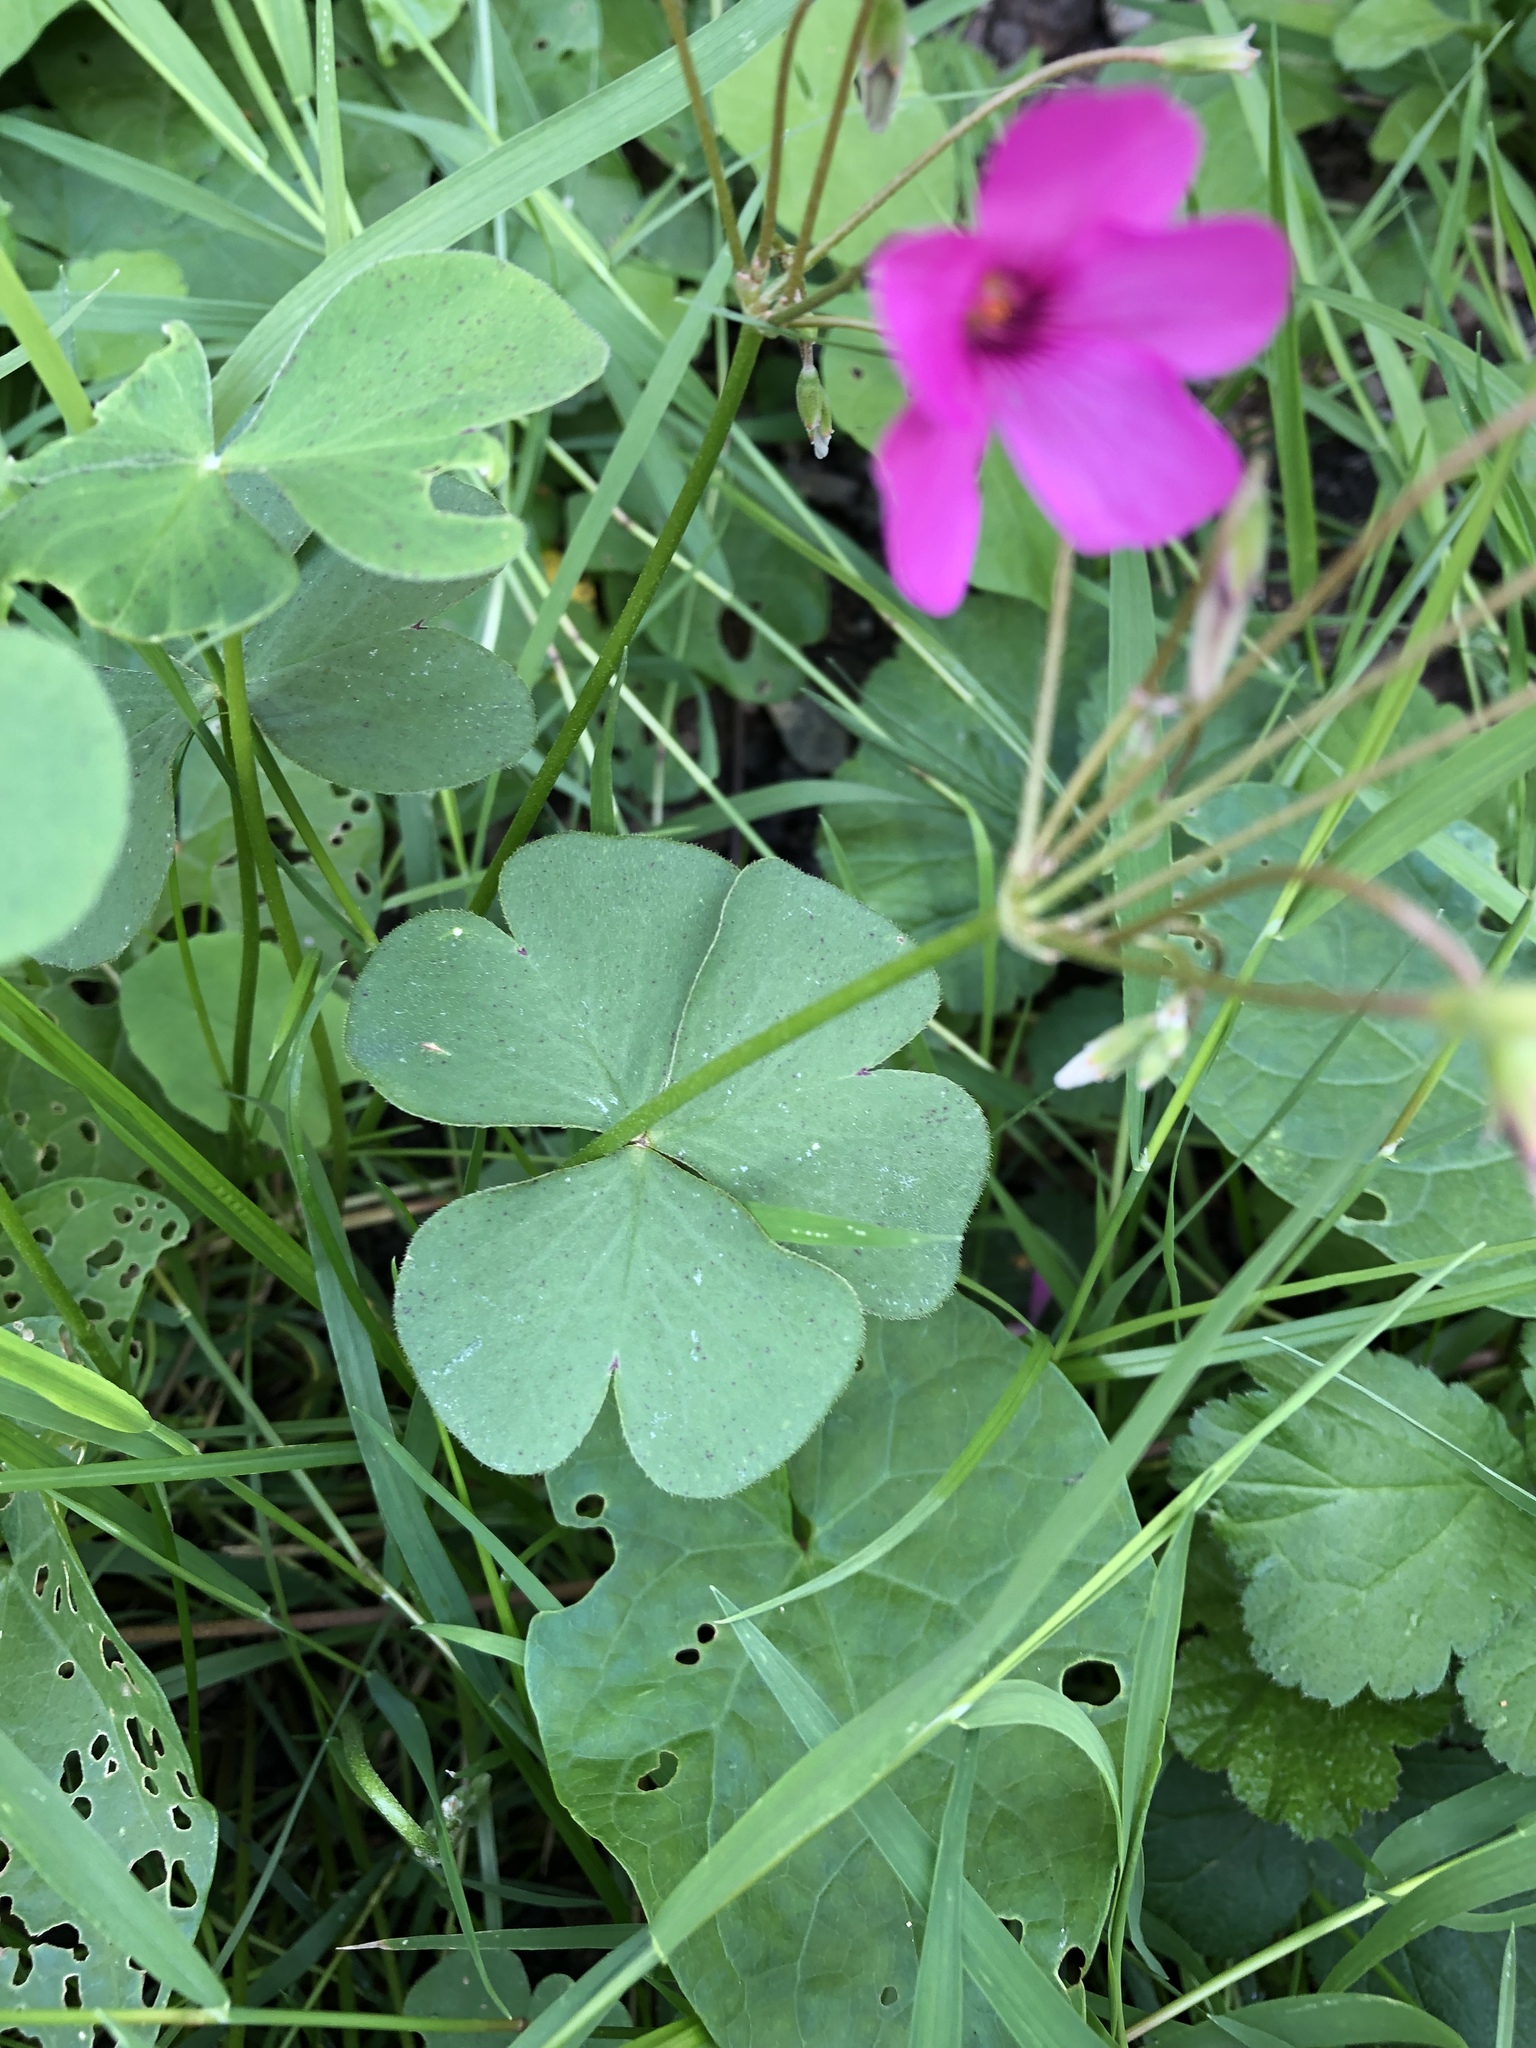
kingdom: Plantae
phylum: Tracheophyta
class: Magnoliopsida
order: Oxalidales
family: Oxalidaceae
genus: Oxalis
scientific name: Oxalis articulata
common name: Pink-sorrel
